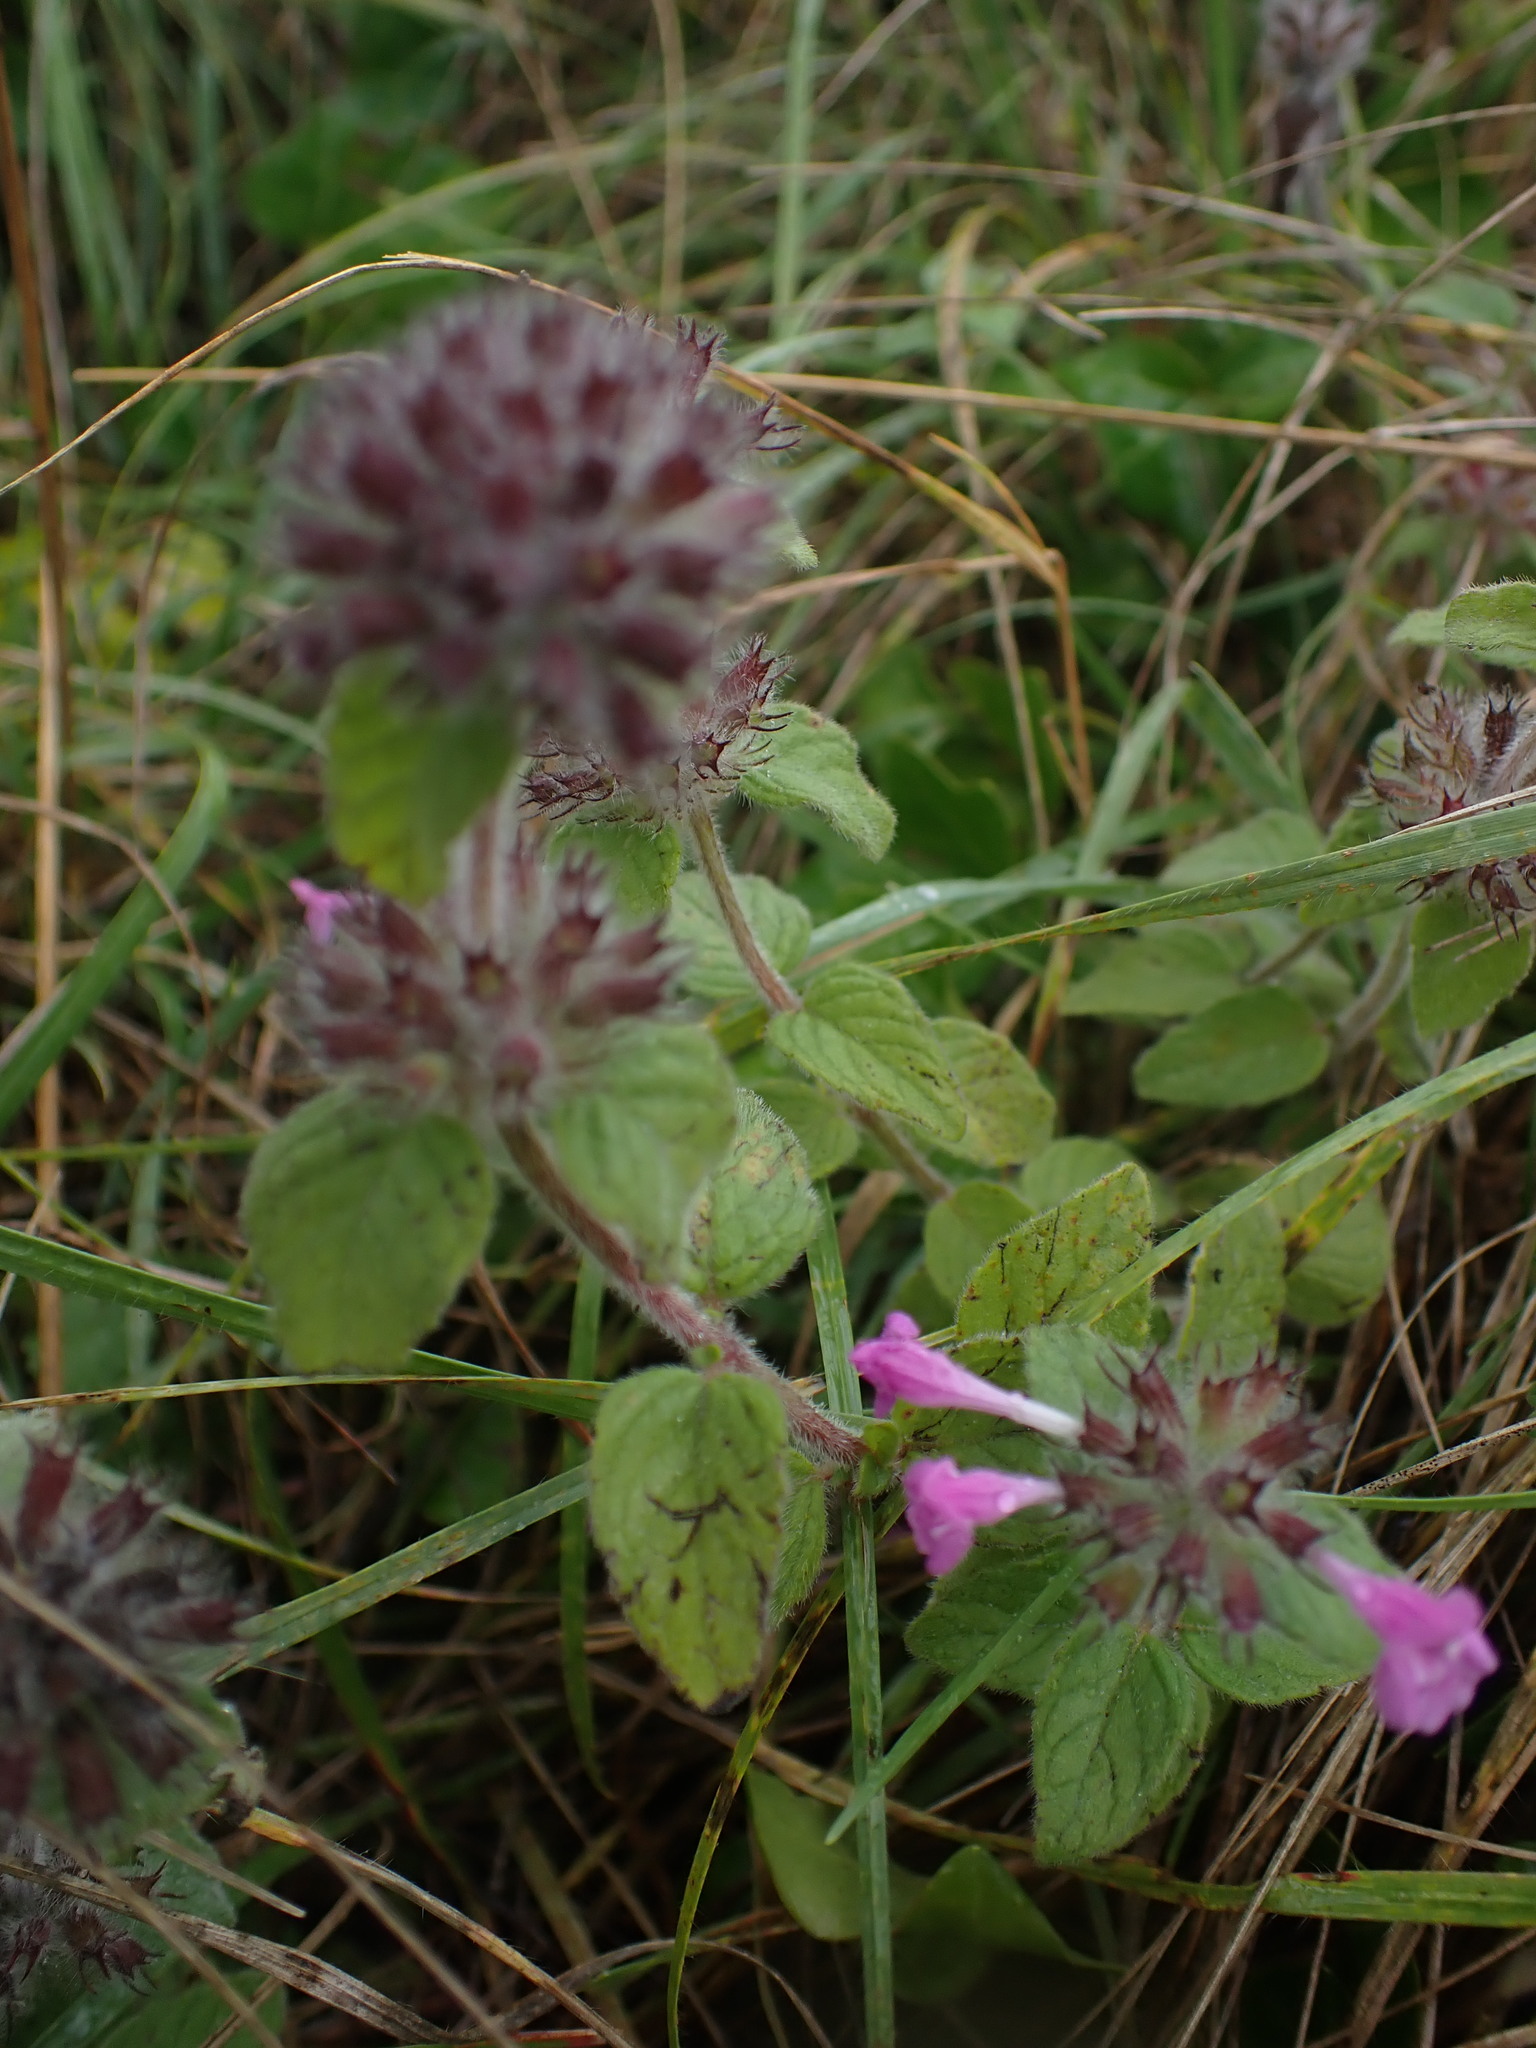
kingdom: Plantae
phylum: Tracheophyta
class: Magnoliopsida
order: Lamiales
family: Lamiaceae
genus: Clinopodium
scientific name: Clinopodium vulgare
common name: Wild basil
